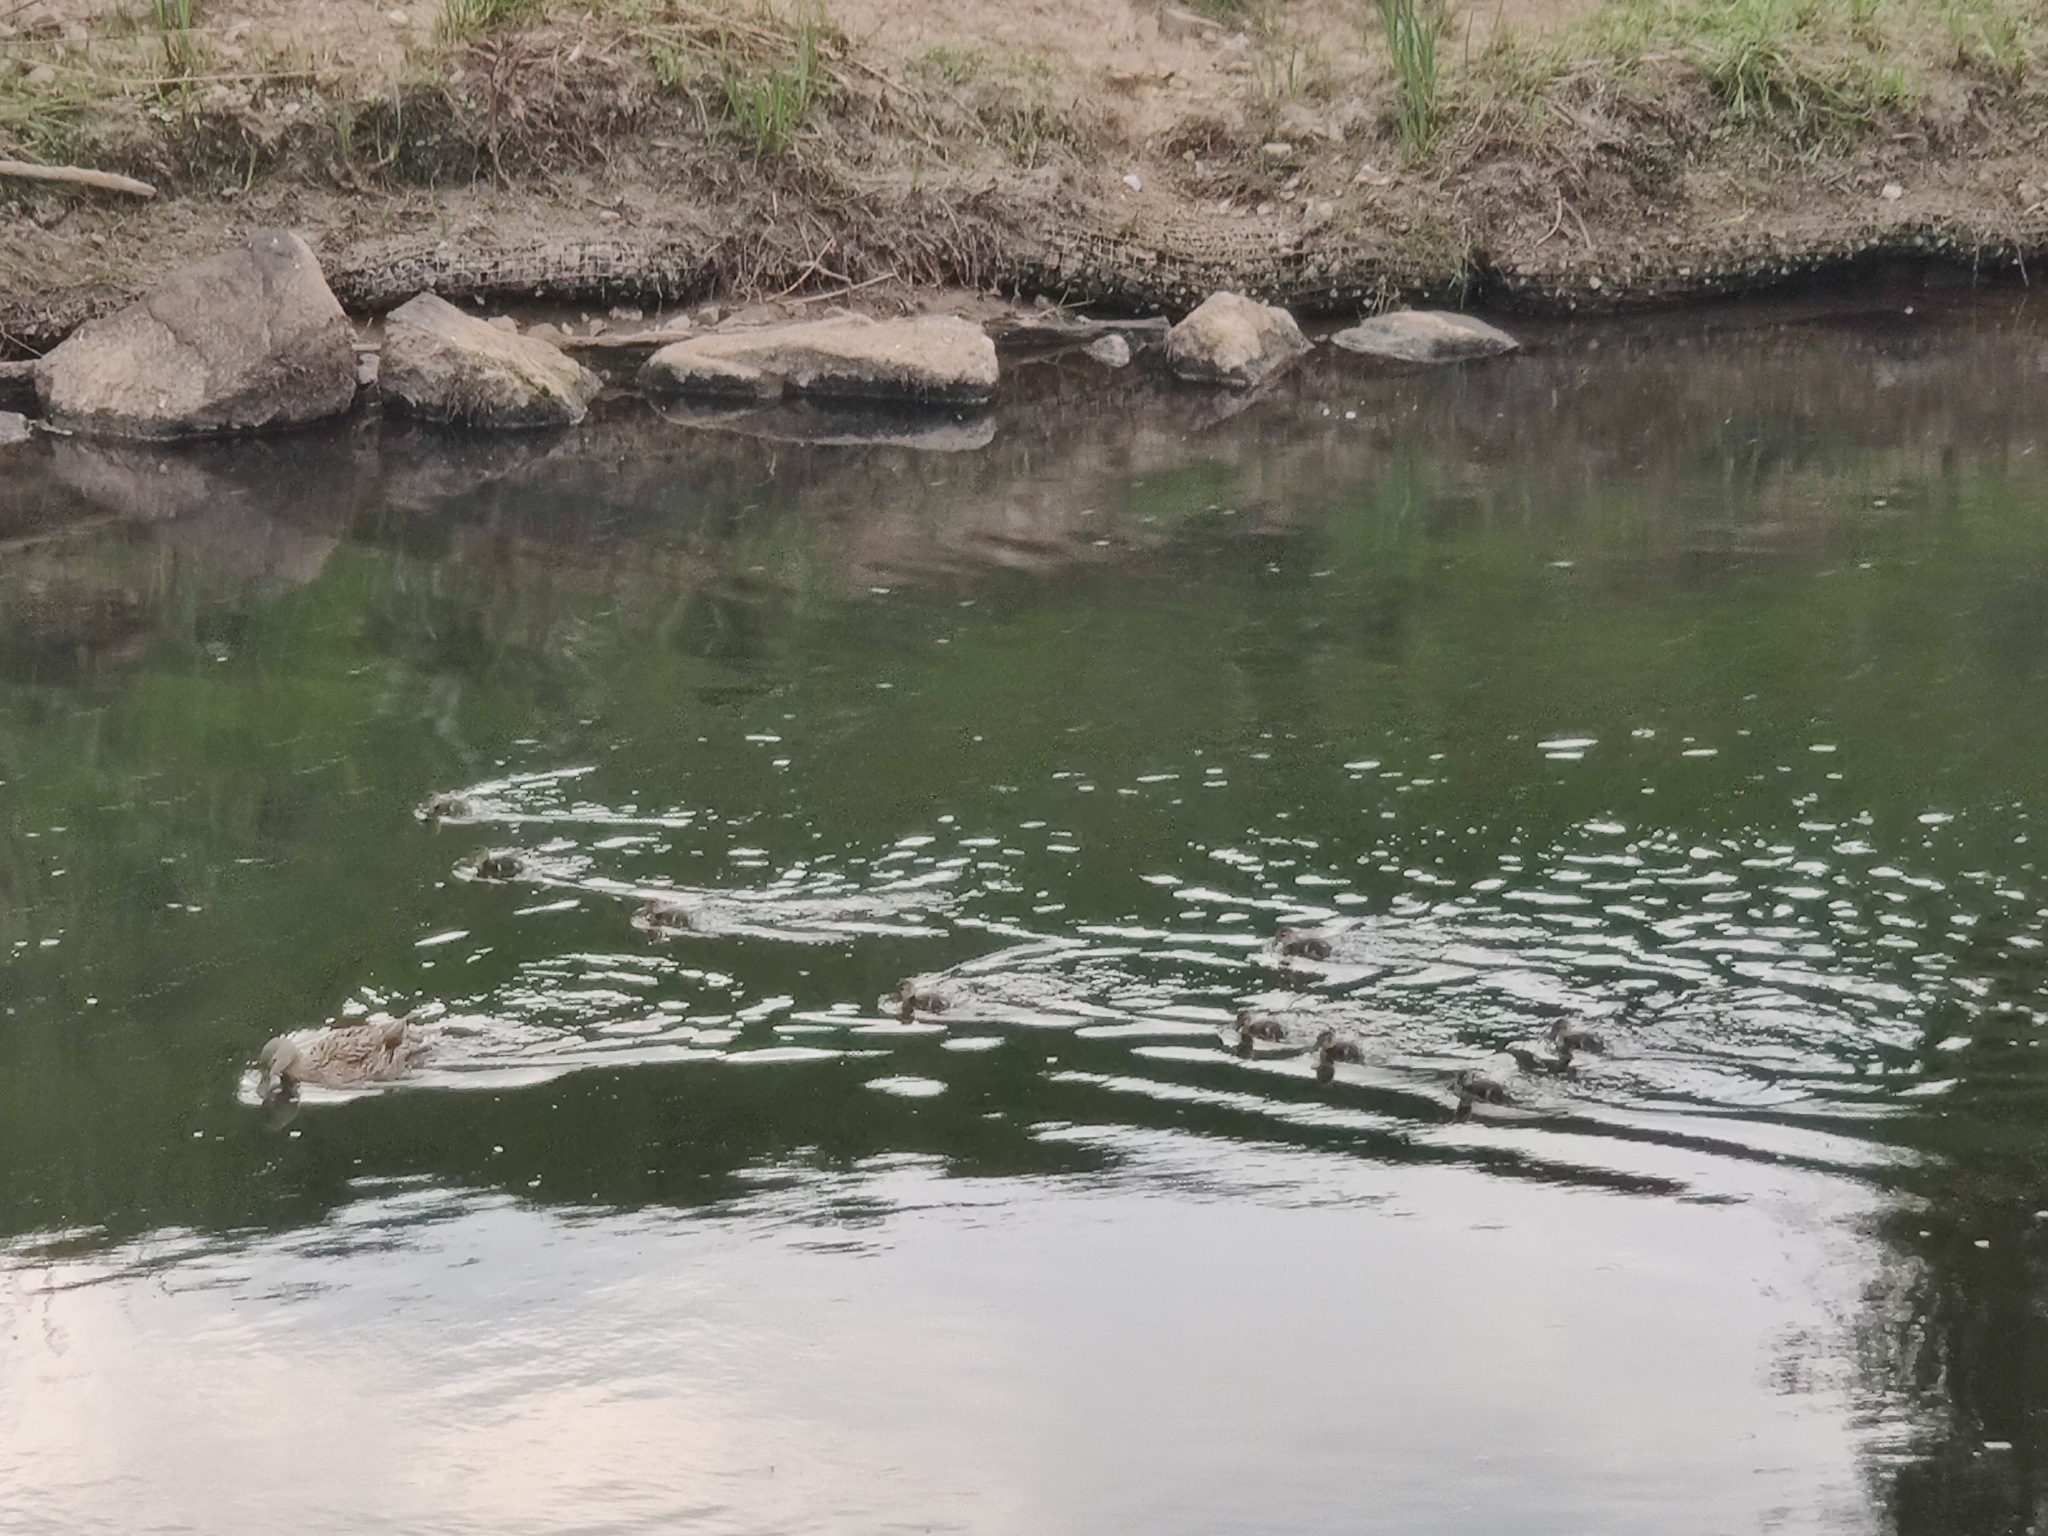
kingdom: Animalia
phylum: Chordata
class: Aves
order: Anseriformes
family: Anatidae
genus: Anas
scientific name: Anas platyrhynchos
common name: Mallard
